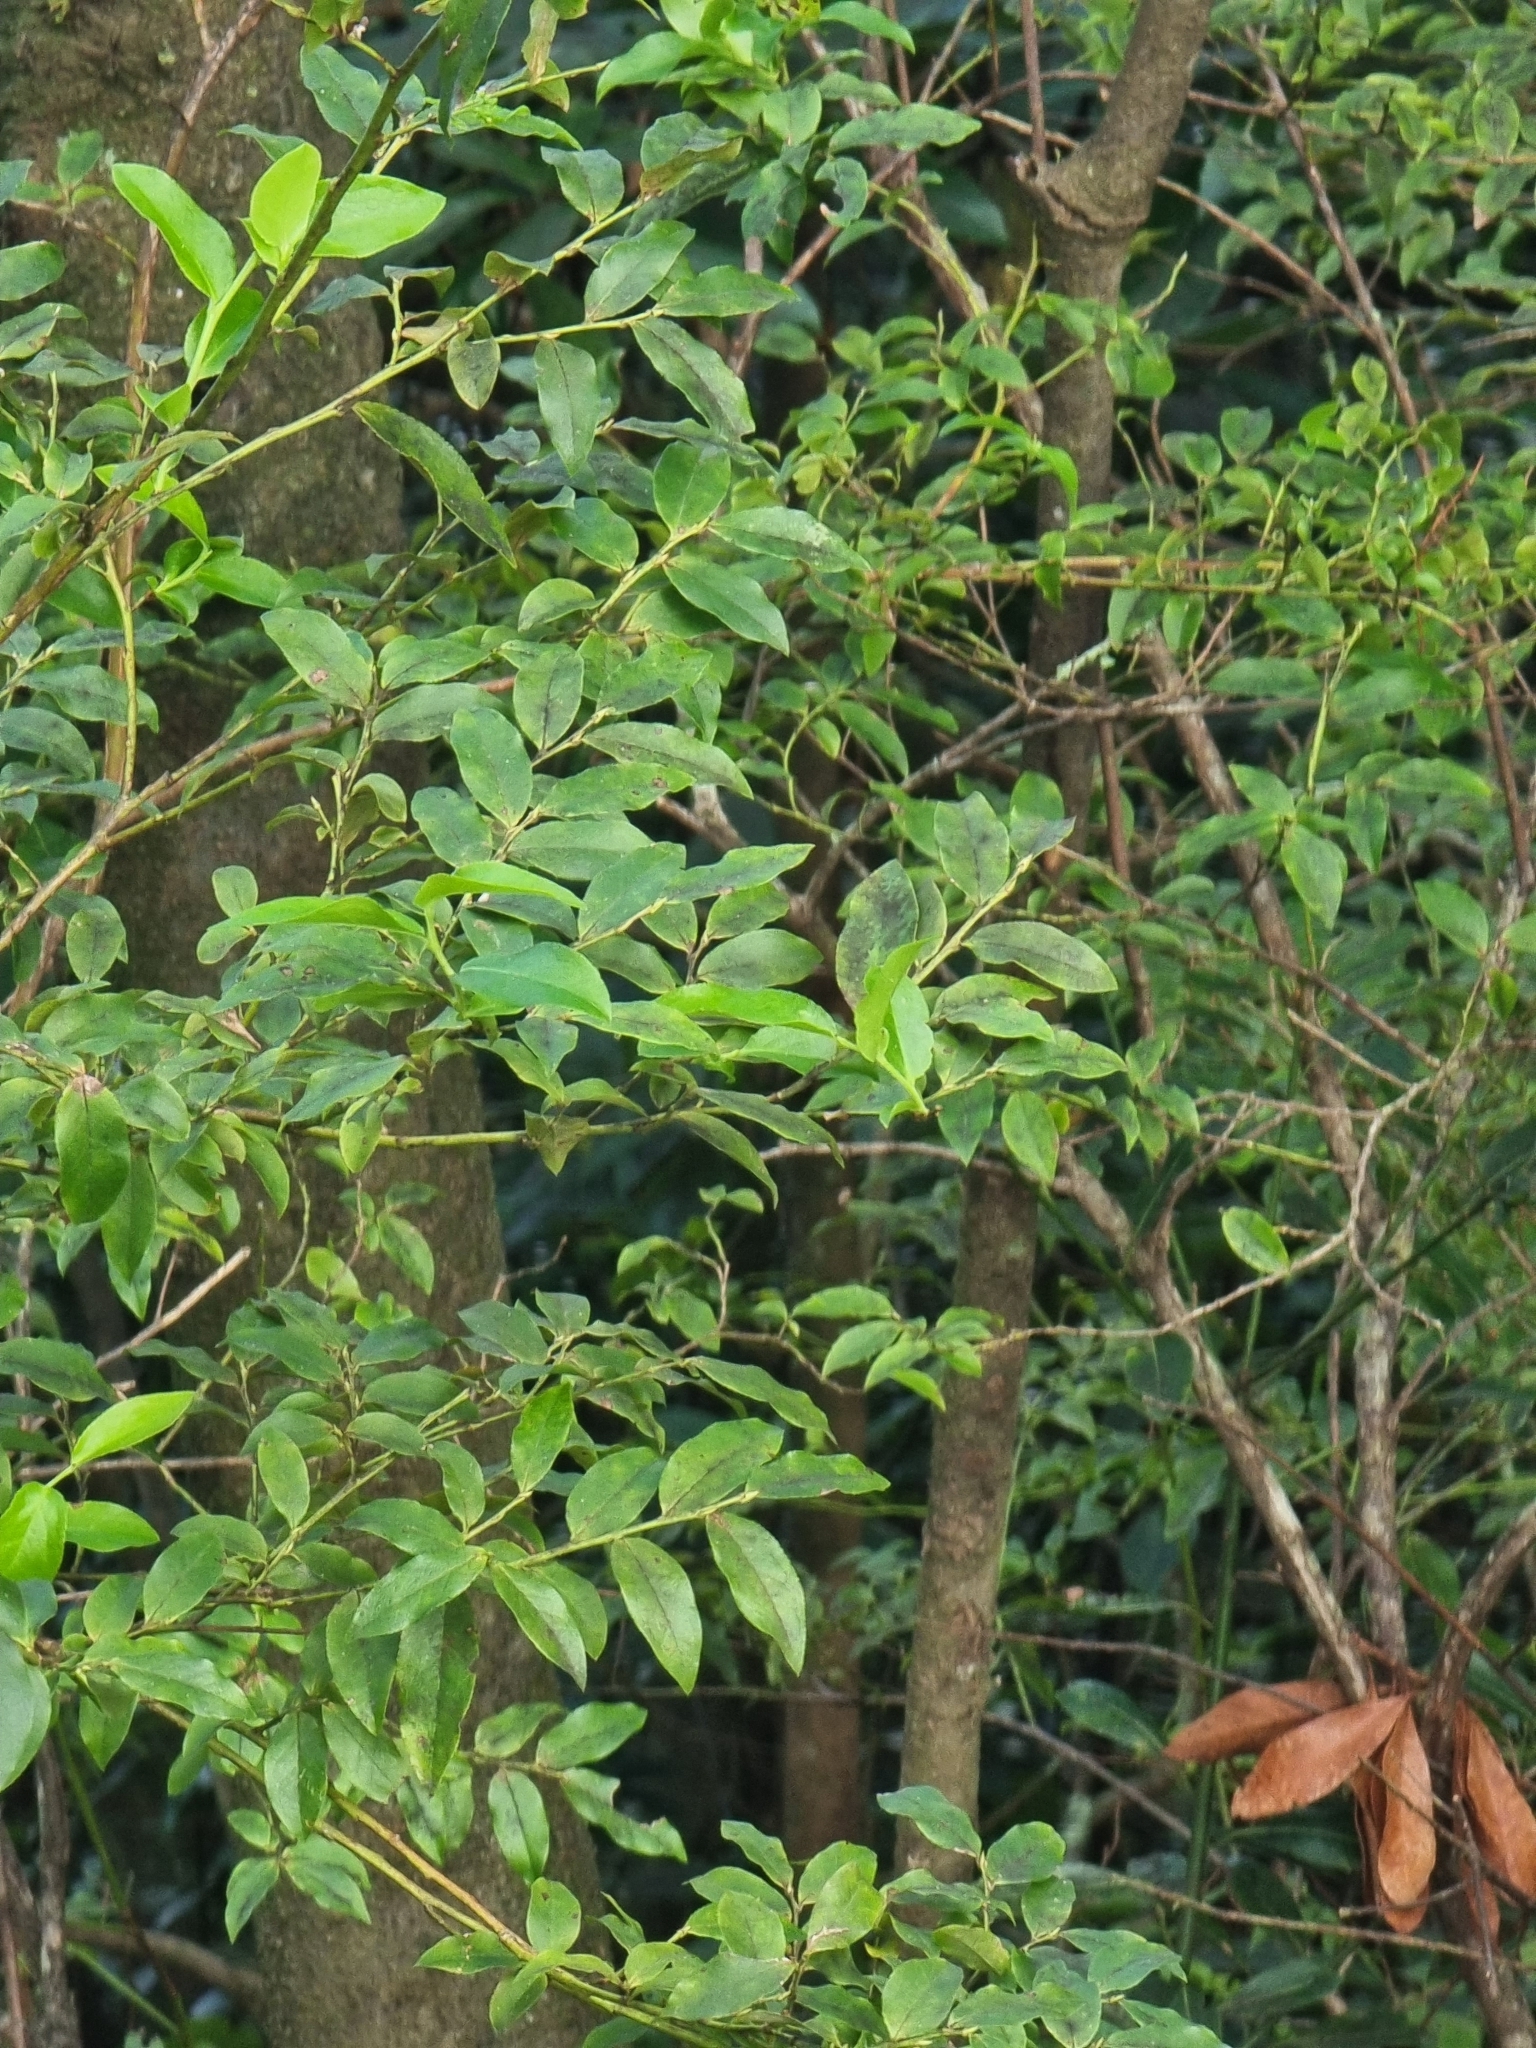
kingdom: Plantae
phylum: Tracheophyta
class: Magnoliopsida
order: Ericales
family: Ericaceae
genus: Vaccinium
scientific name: Vaccinium padifolium
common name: Madeiran blueberry
